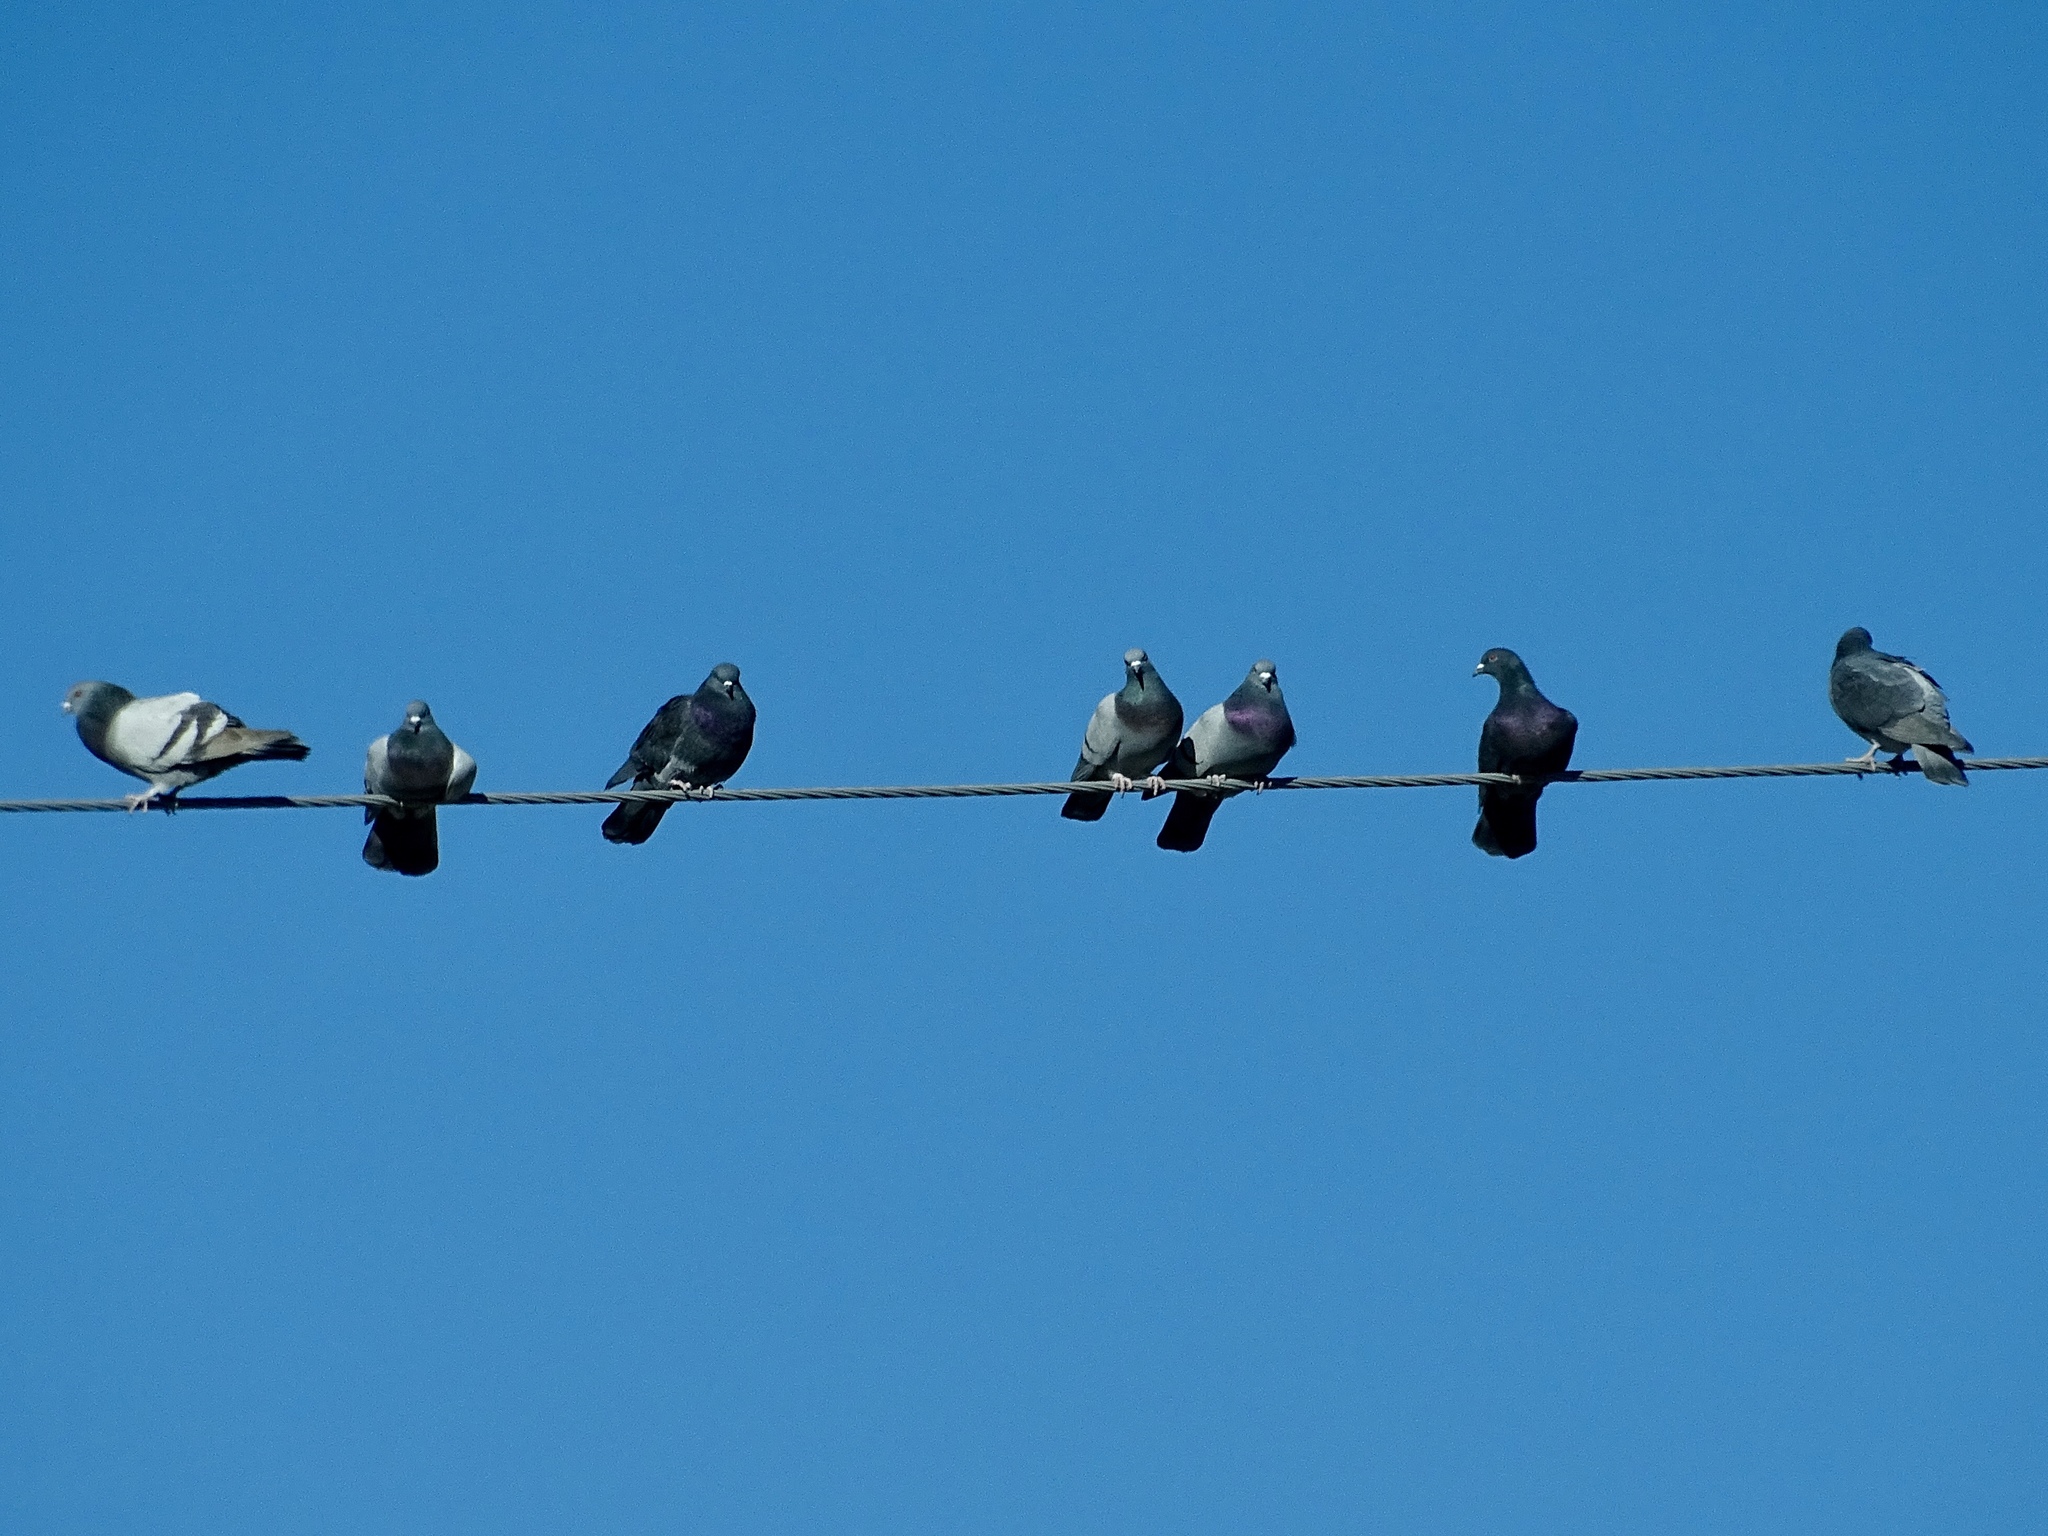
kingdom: Animalia
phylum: Chordata
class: Aves
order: Columbiformes
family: Columbidae
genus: Columba
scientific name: Columba livia
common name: Rock pigeon
